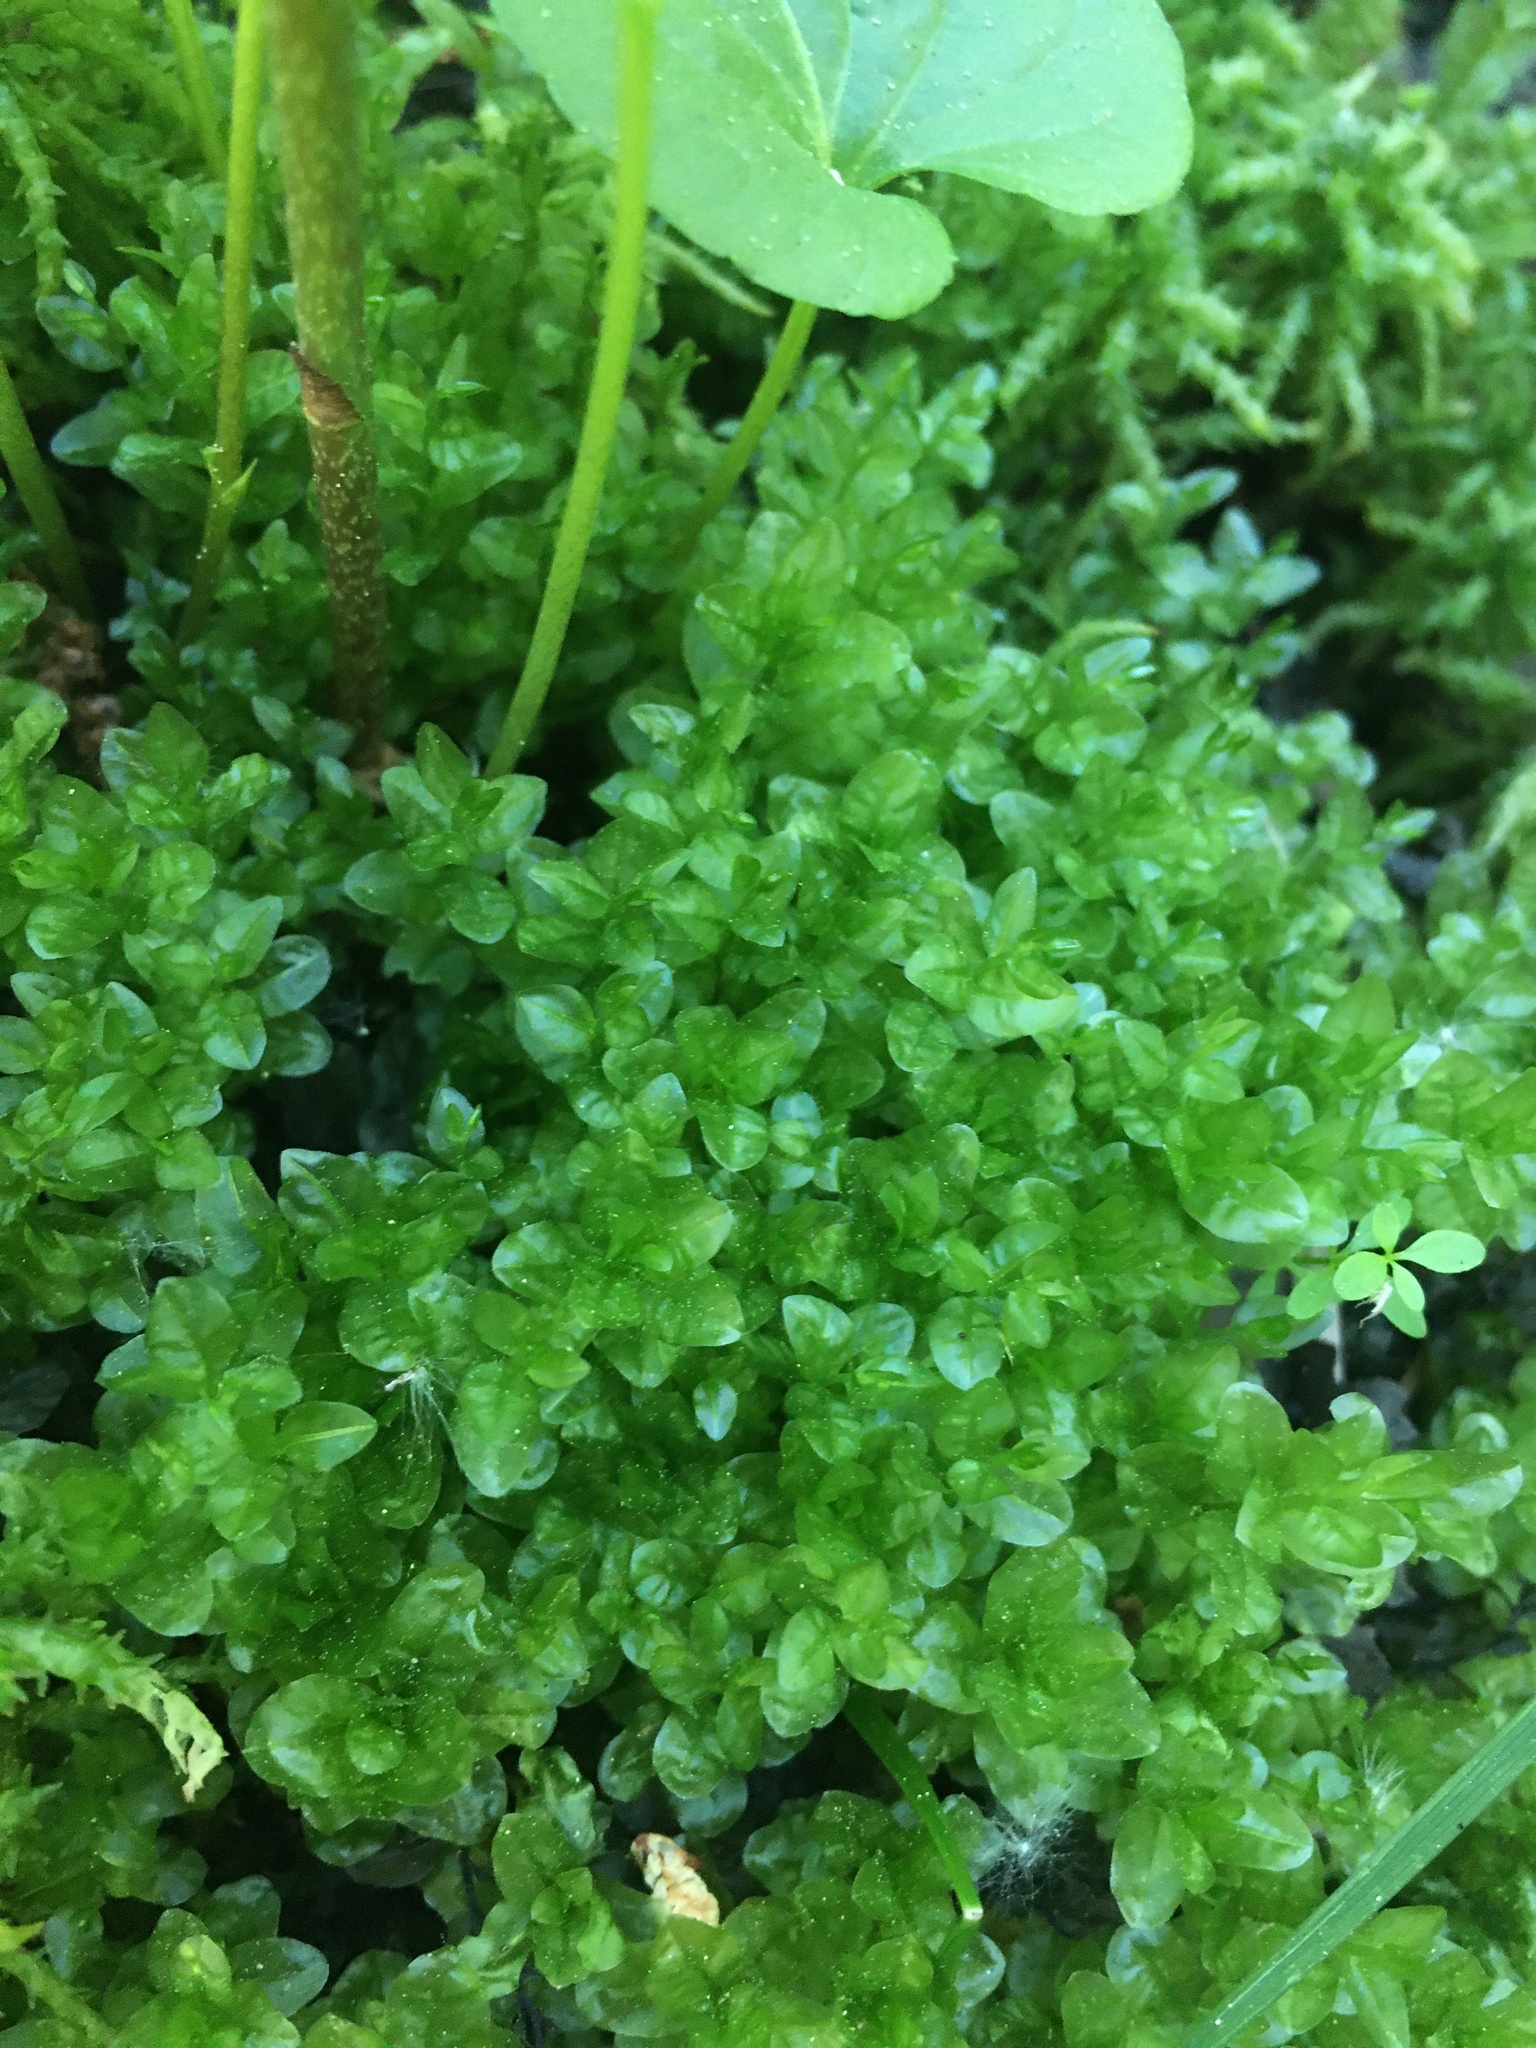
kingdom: Plantae
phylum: Bryophyta
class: Bryopsida
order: Bryales
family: Mniaceae
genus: Rhizomnium
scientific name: Rhizomnium punctatum
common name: Dotted leafy moss
